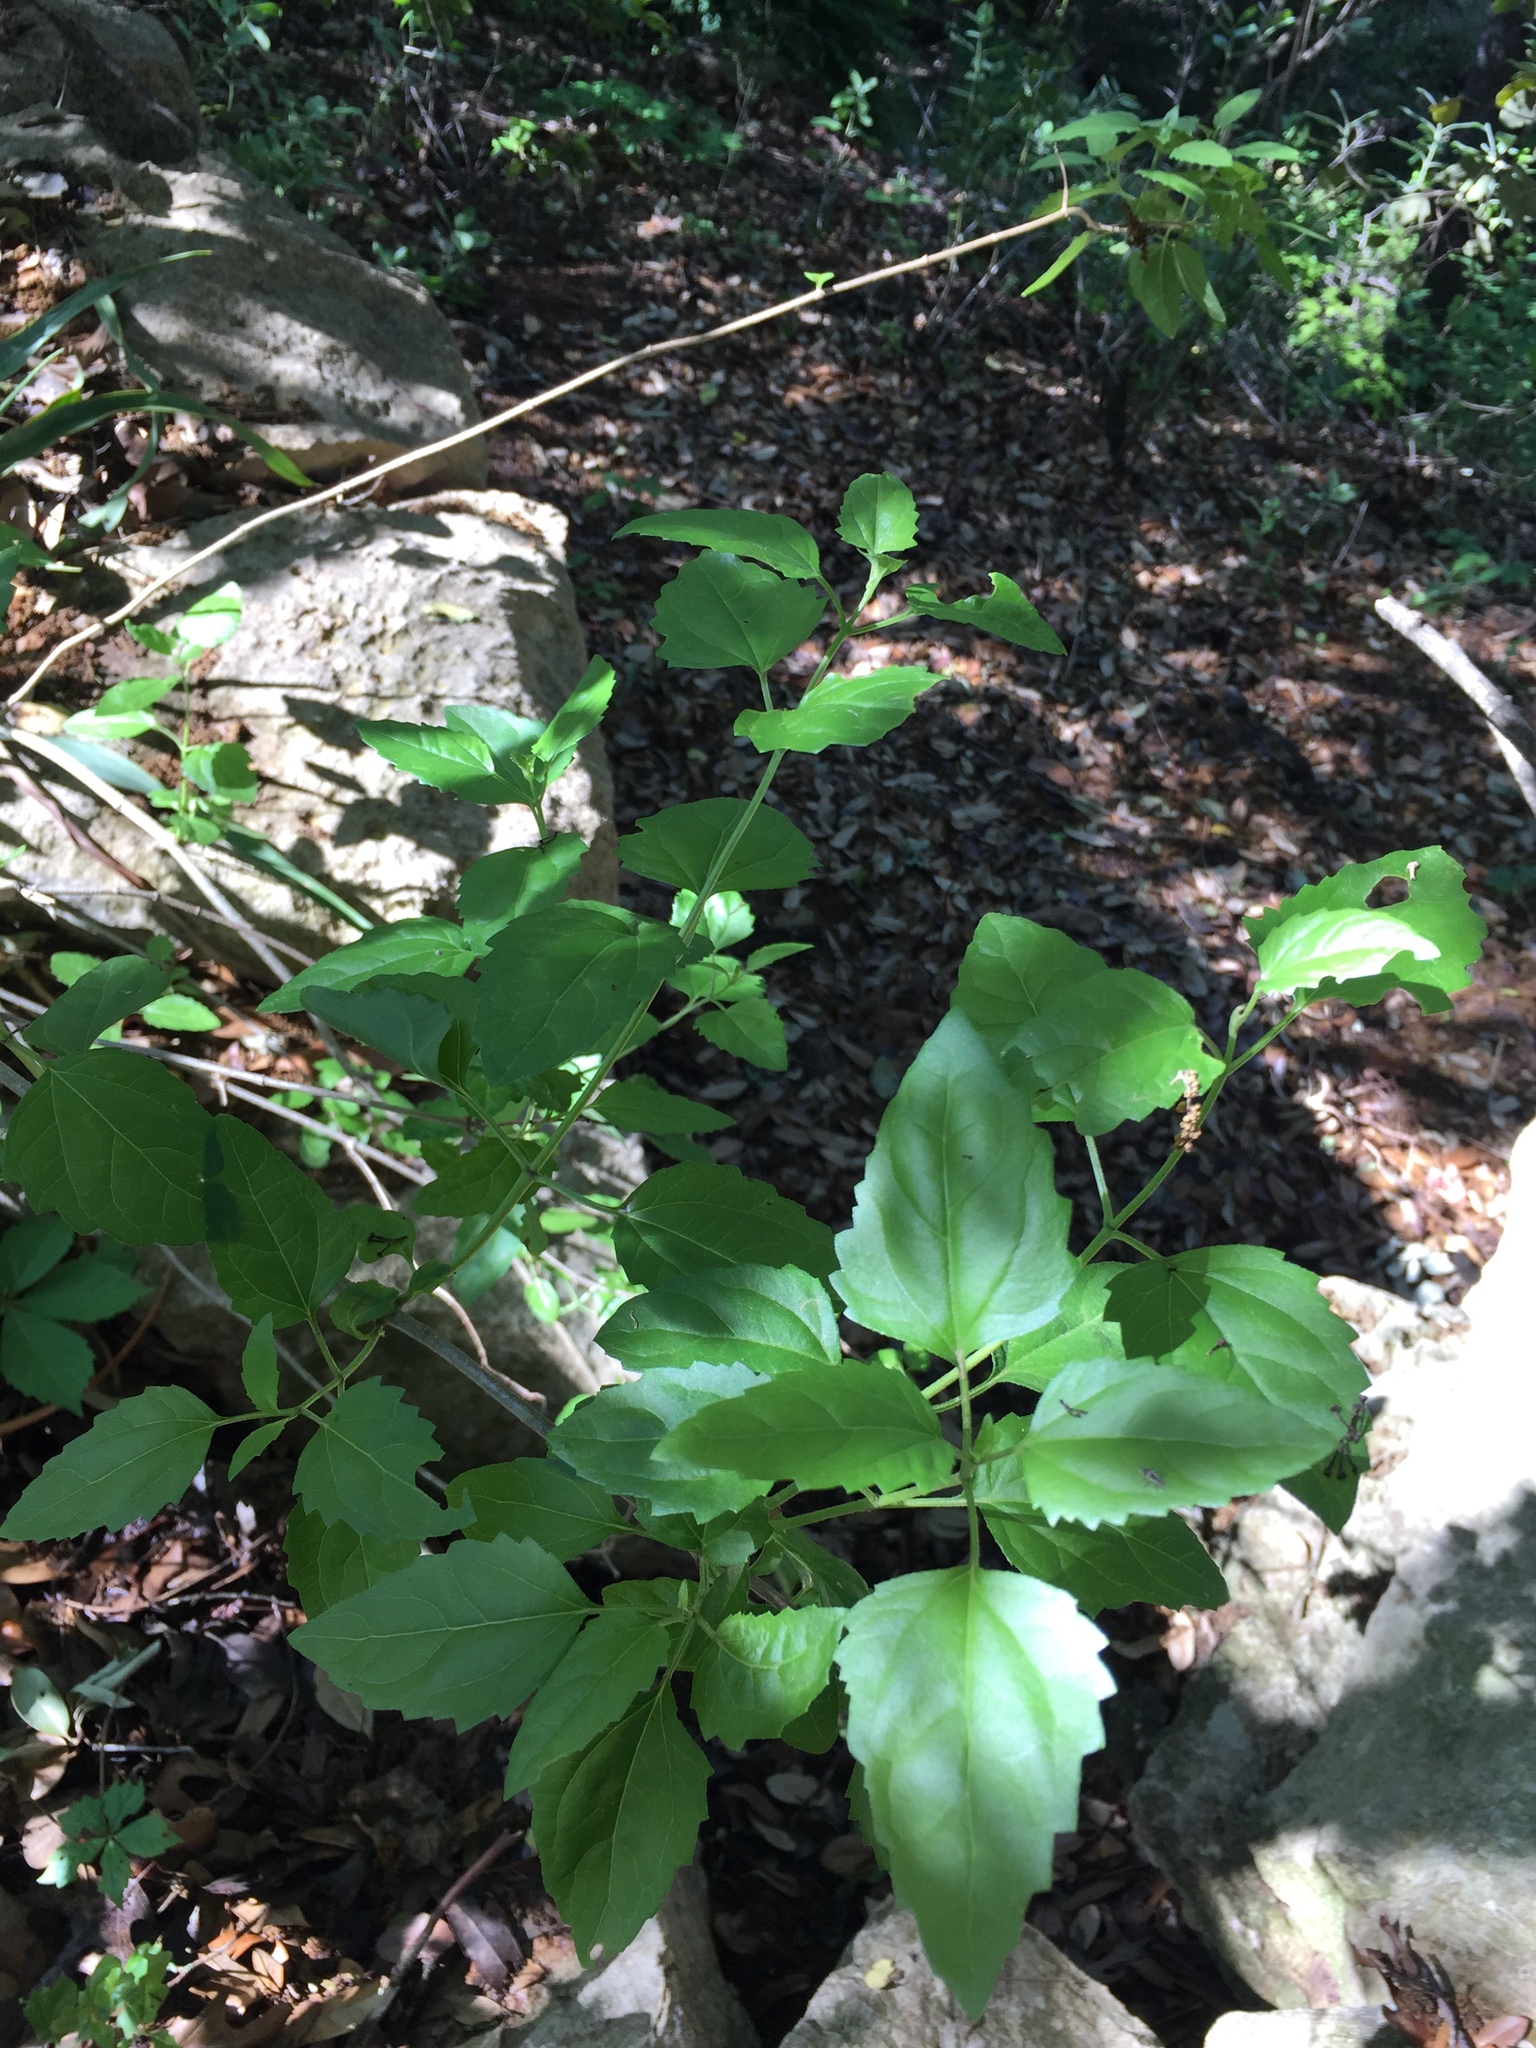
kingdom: Plantae
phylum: Tracheophyta
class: Magnoliopsida
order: Asterales
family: Asteraceae
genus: Ageratina
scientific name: Ageratina havanensis
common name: Havana snakeroot
